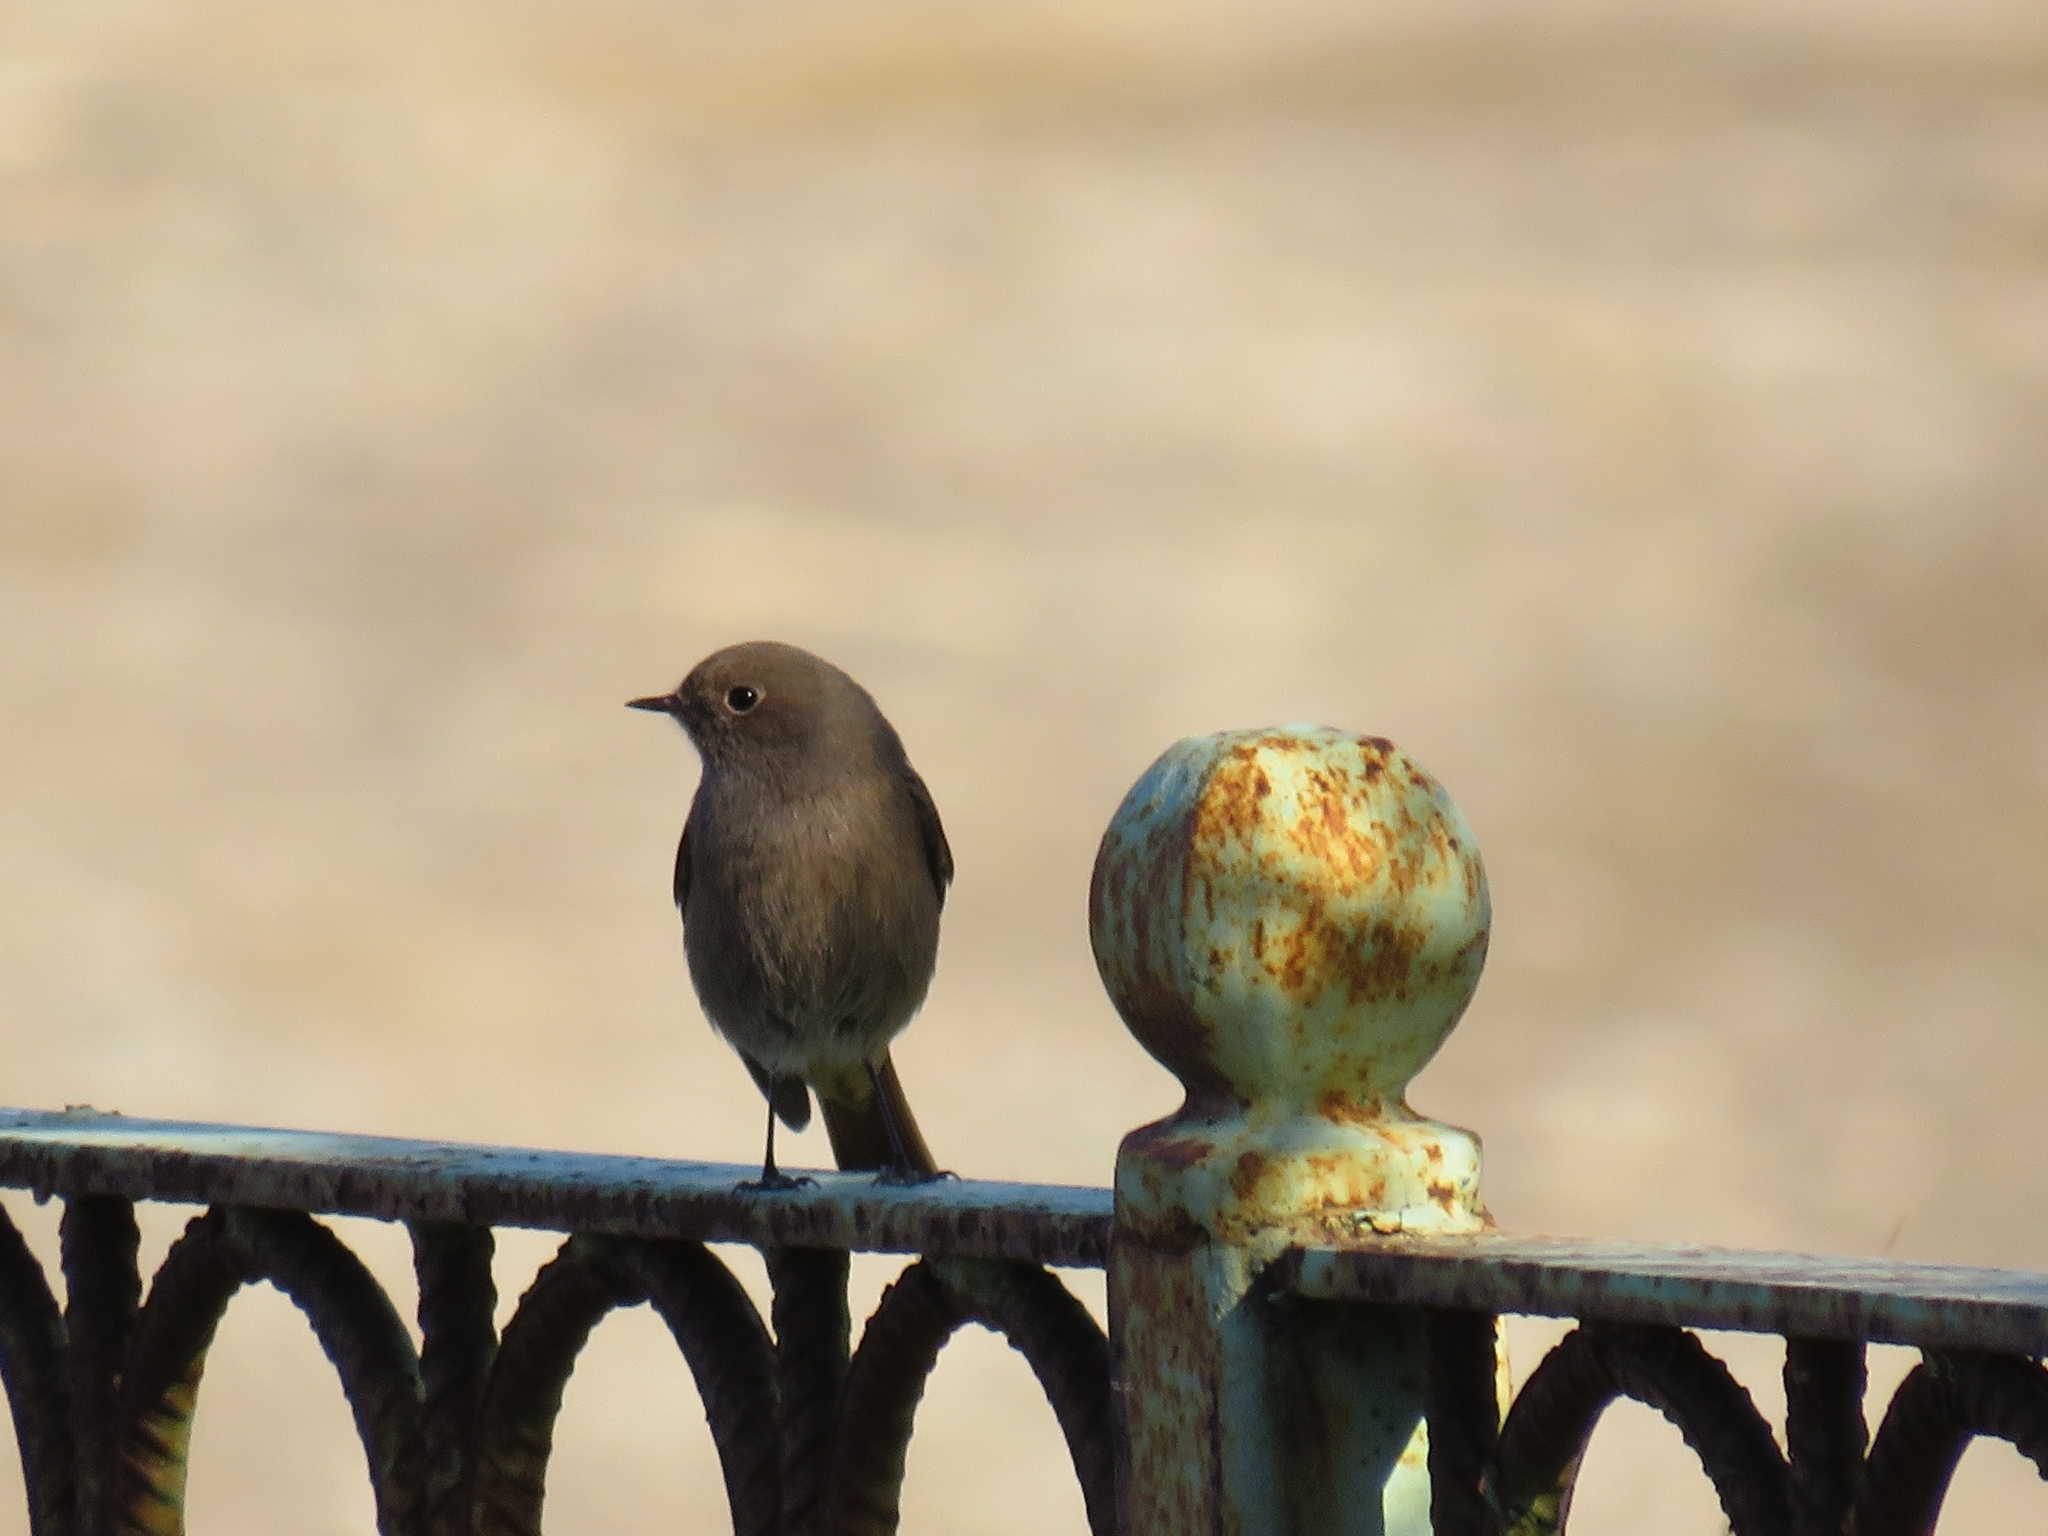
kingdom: Animalia
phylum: Chordata
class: Aves
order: Passeriformes
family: Muscicapidae
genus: Phoenicurus
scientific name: Phoenicurus ochruros
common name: Black redstart
